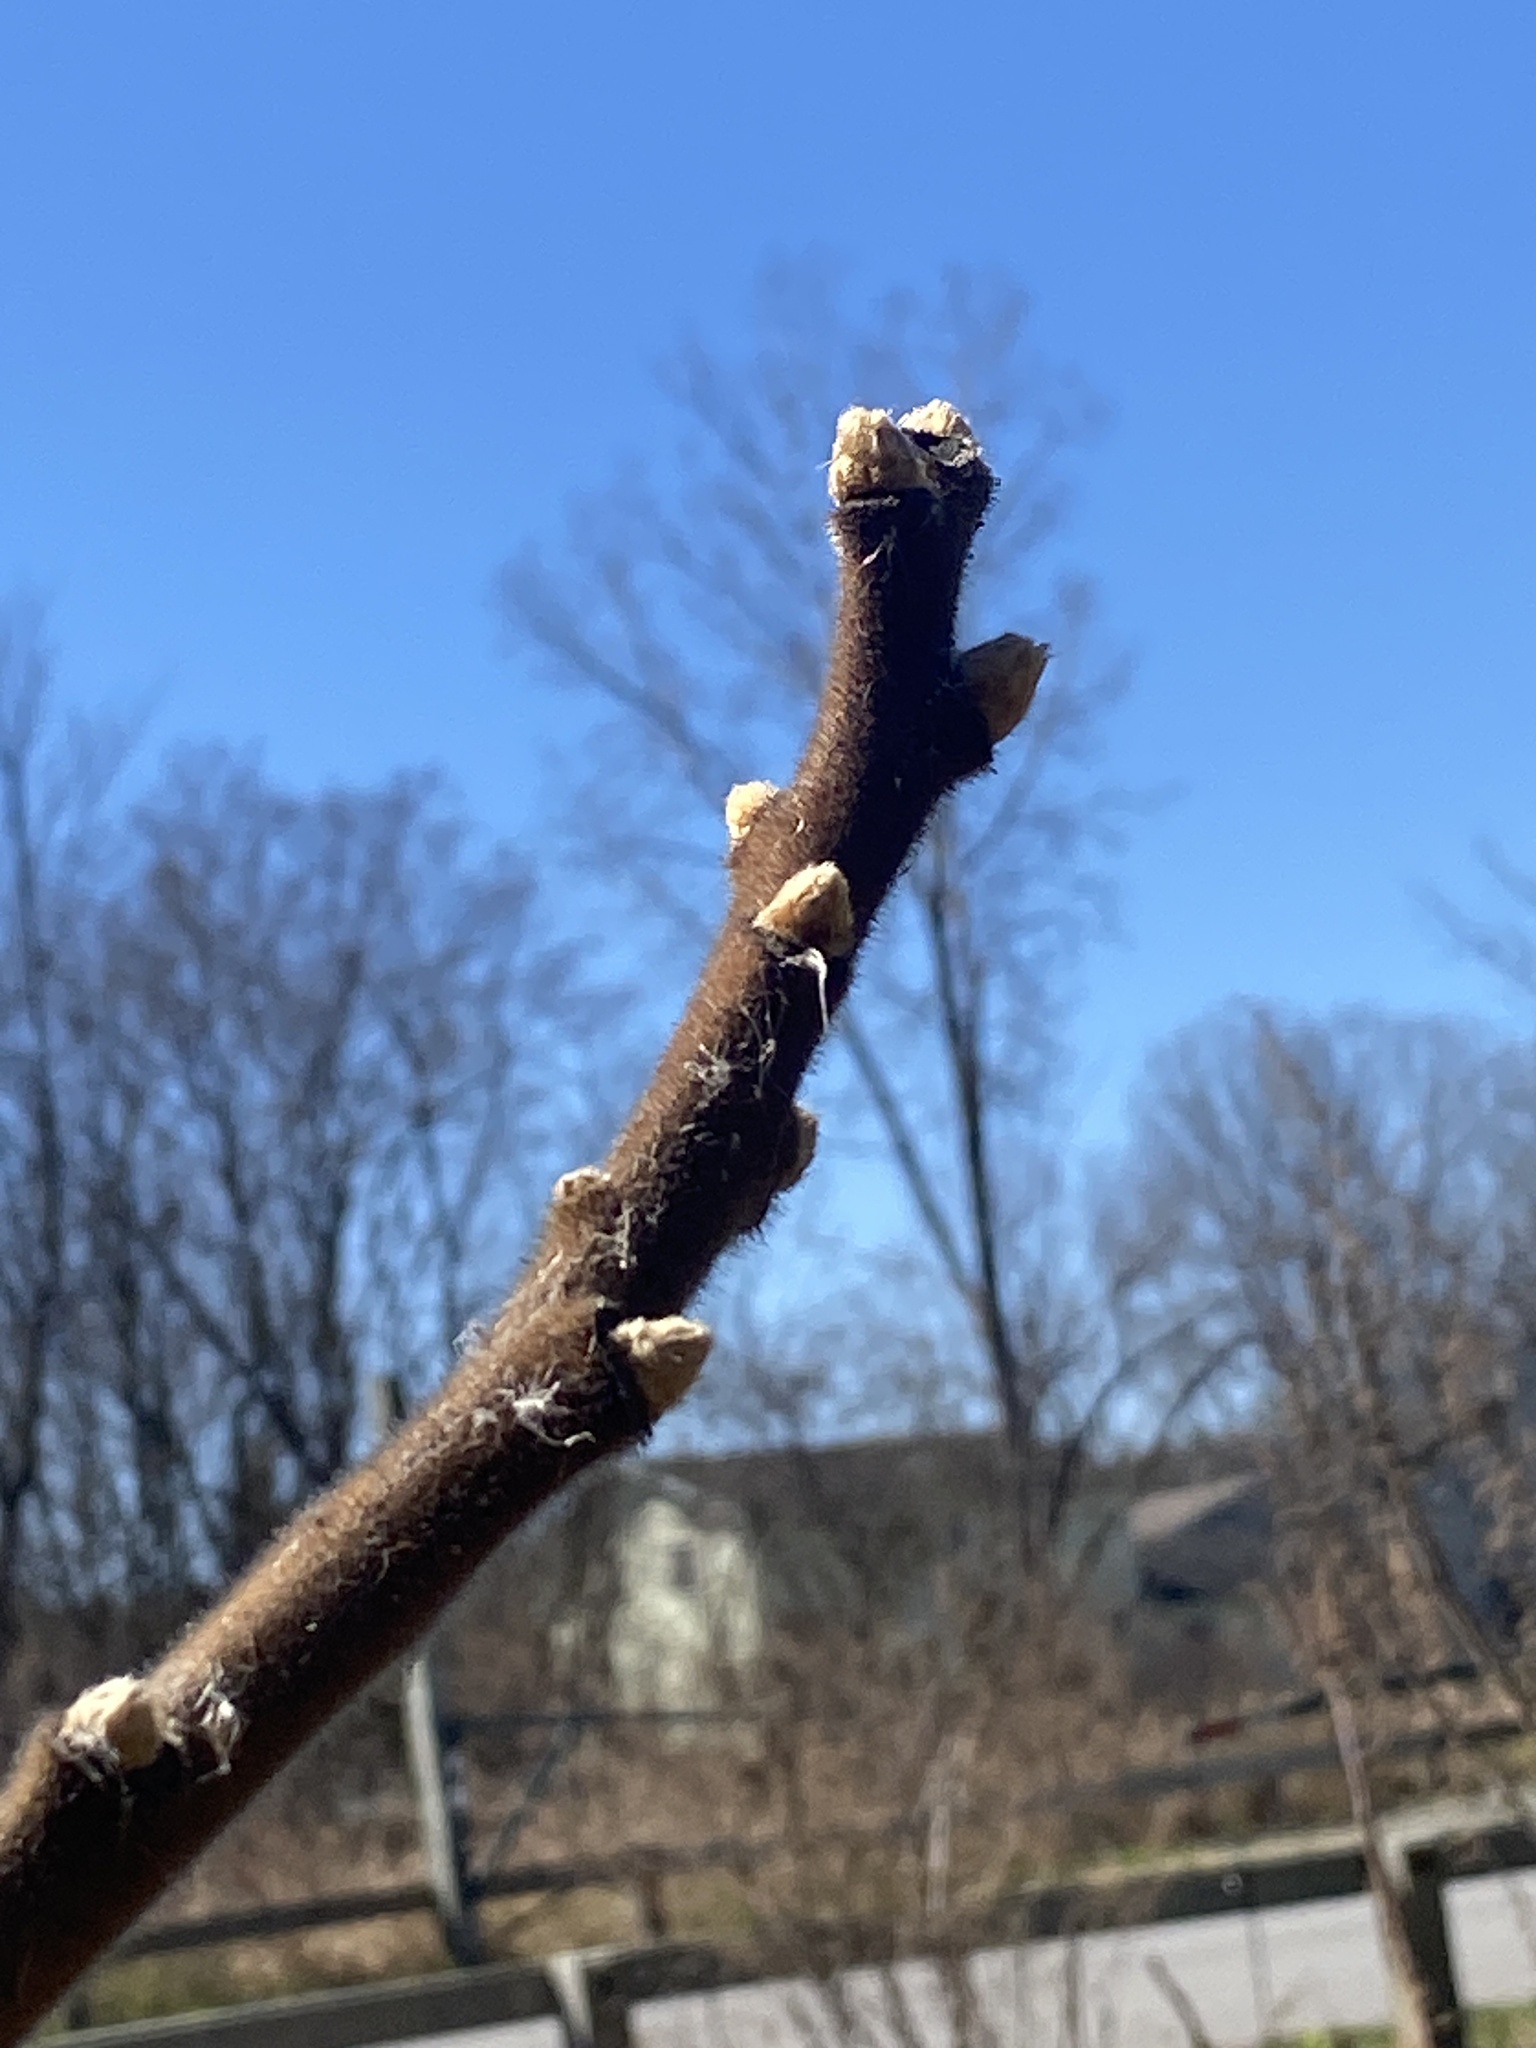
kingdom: Plantae
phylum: Tracheophyta
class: Magnoliopsida
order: Sapindales
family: Anacardiaceae
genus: Rhus
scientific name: Rhus typhina
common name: Staghorn sumac
